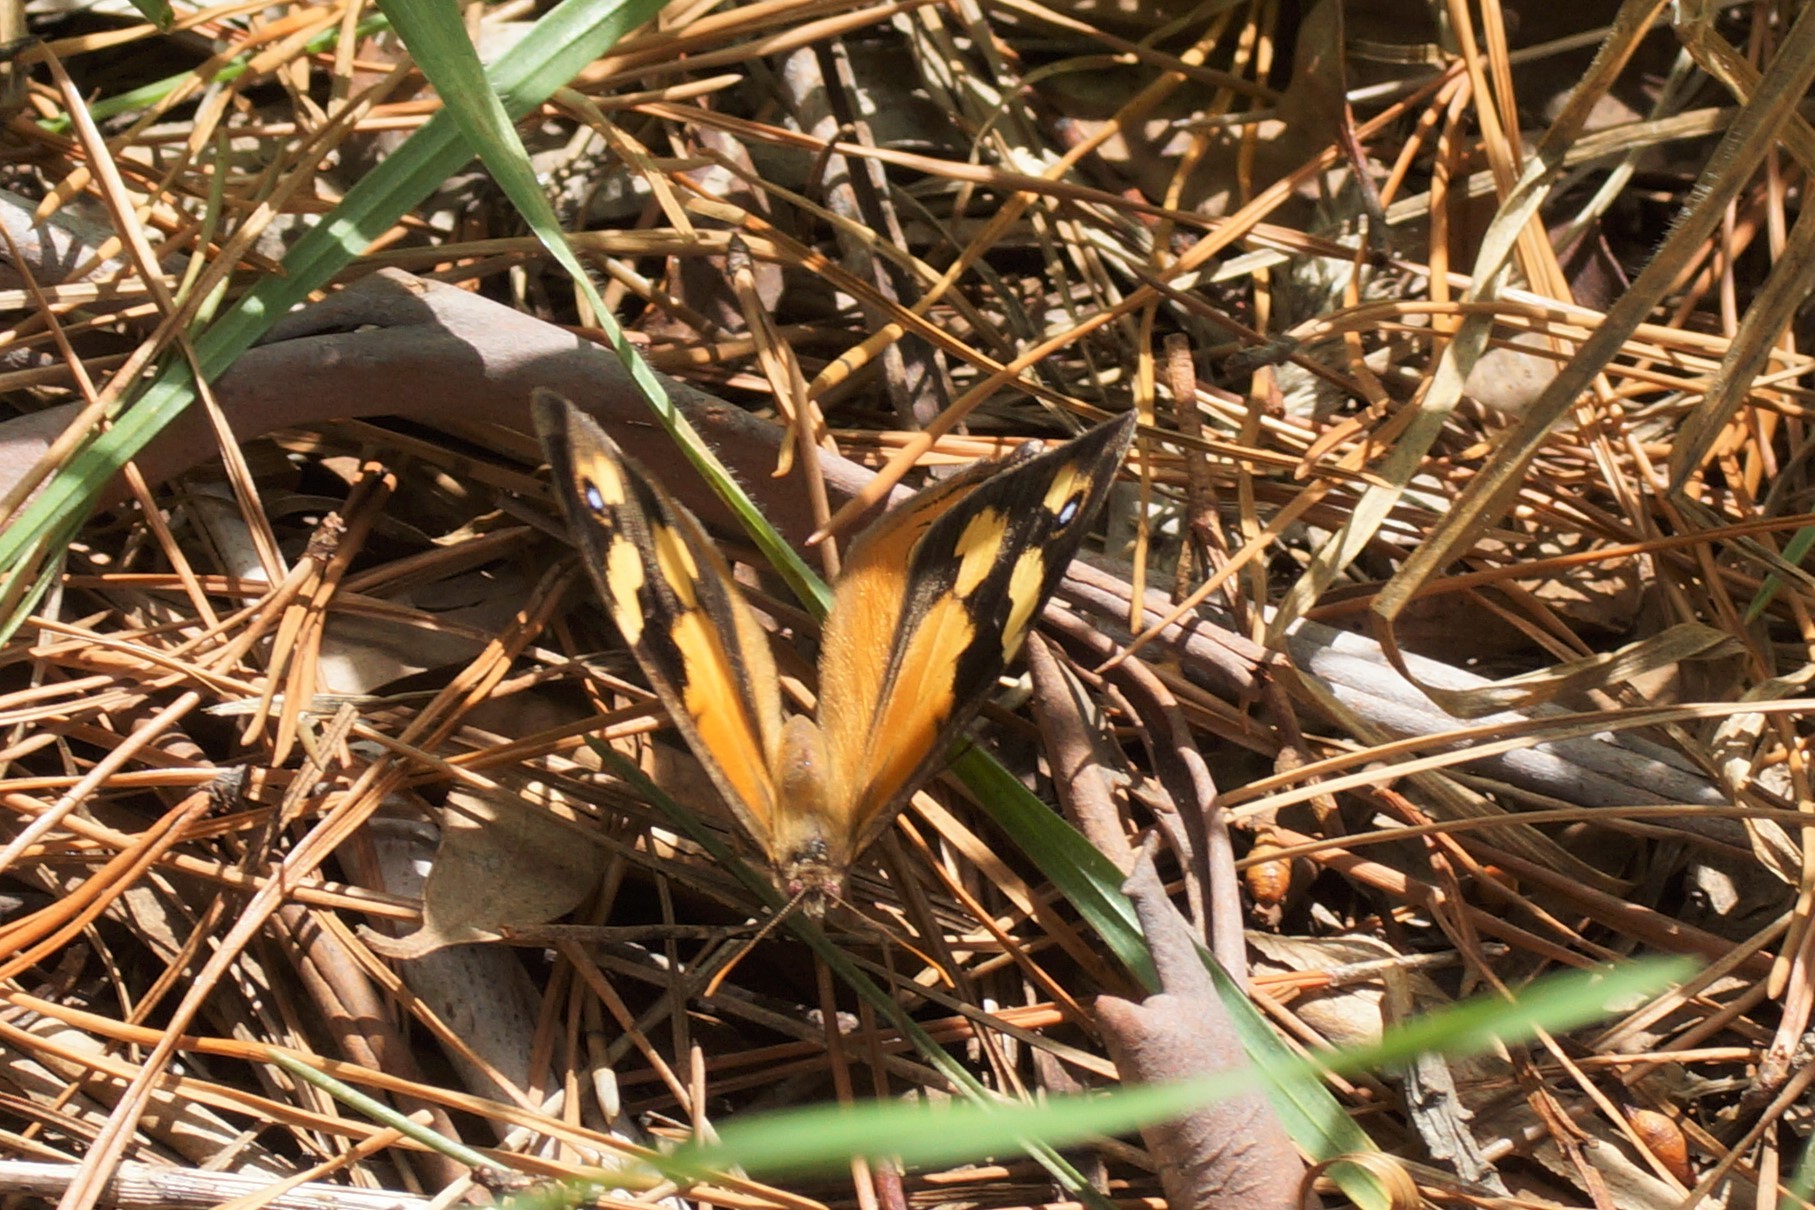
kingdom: Animalia
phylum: Arthropoda
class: Insecta
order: Lepidoptera
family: Nymphalidae
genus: Heteronympha
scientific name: Heteronympha merope
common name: Common brown
